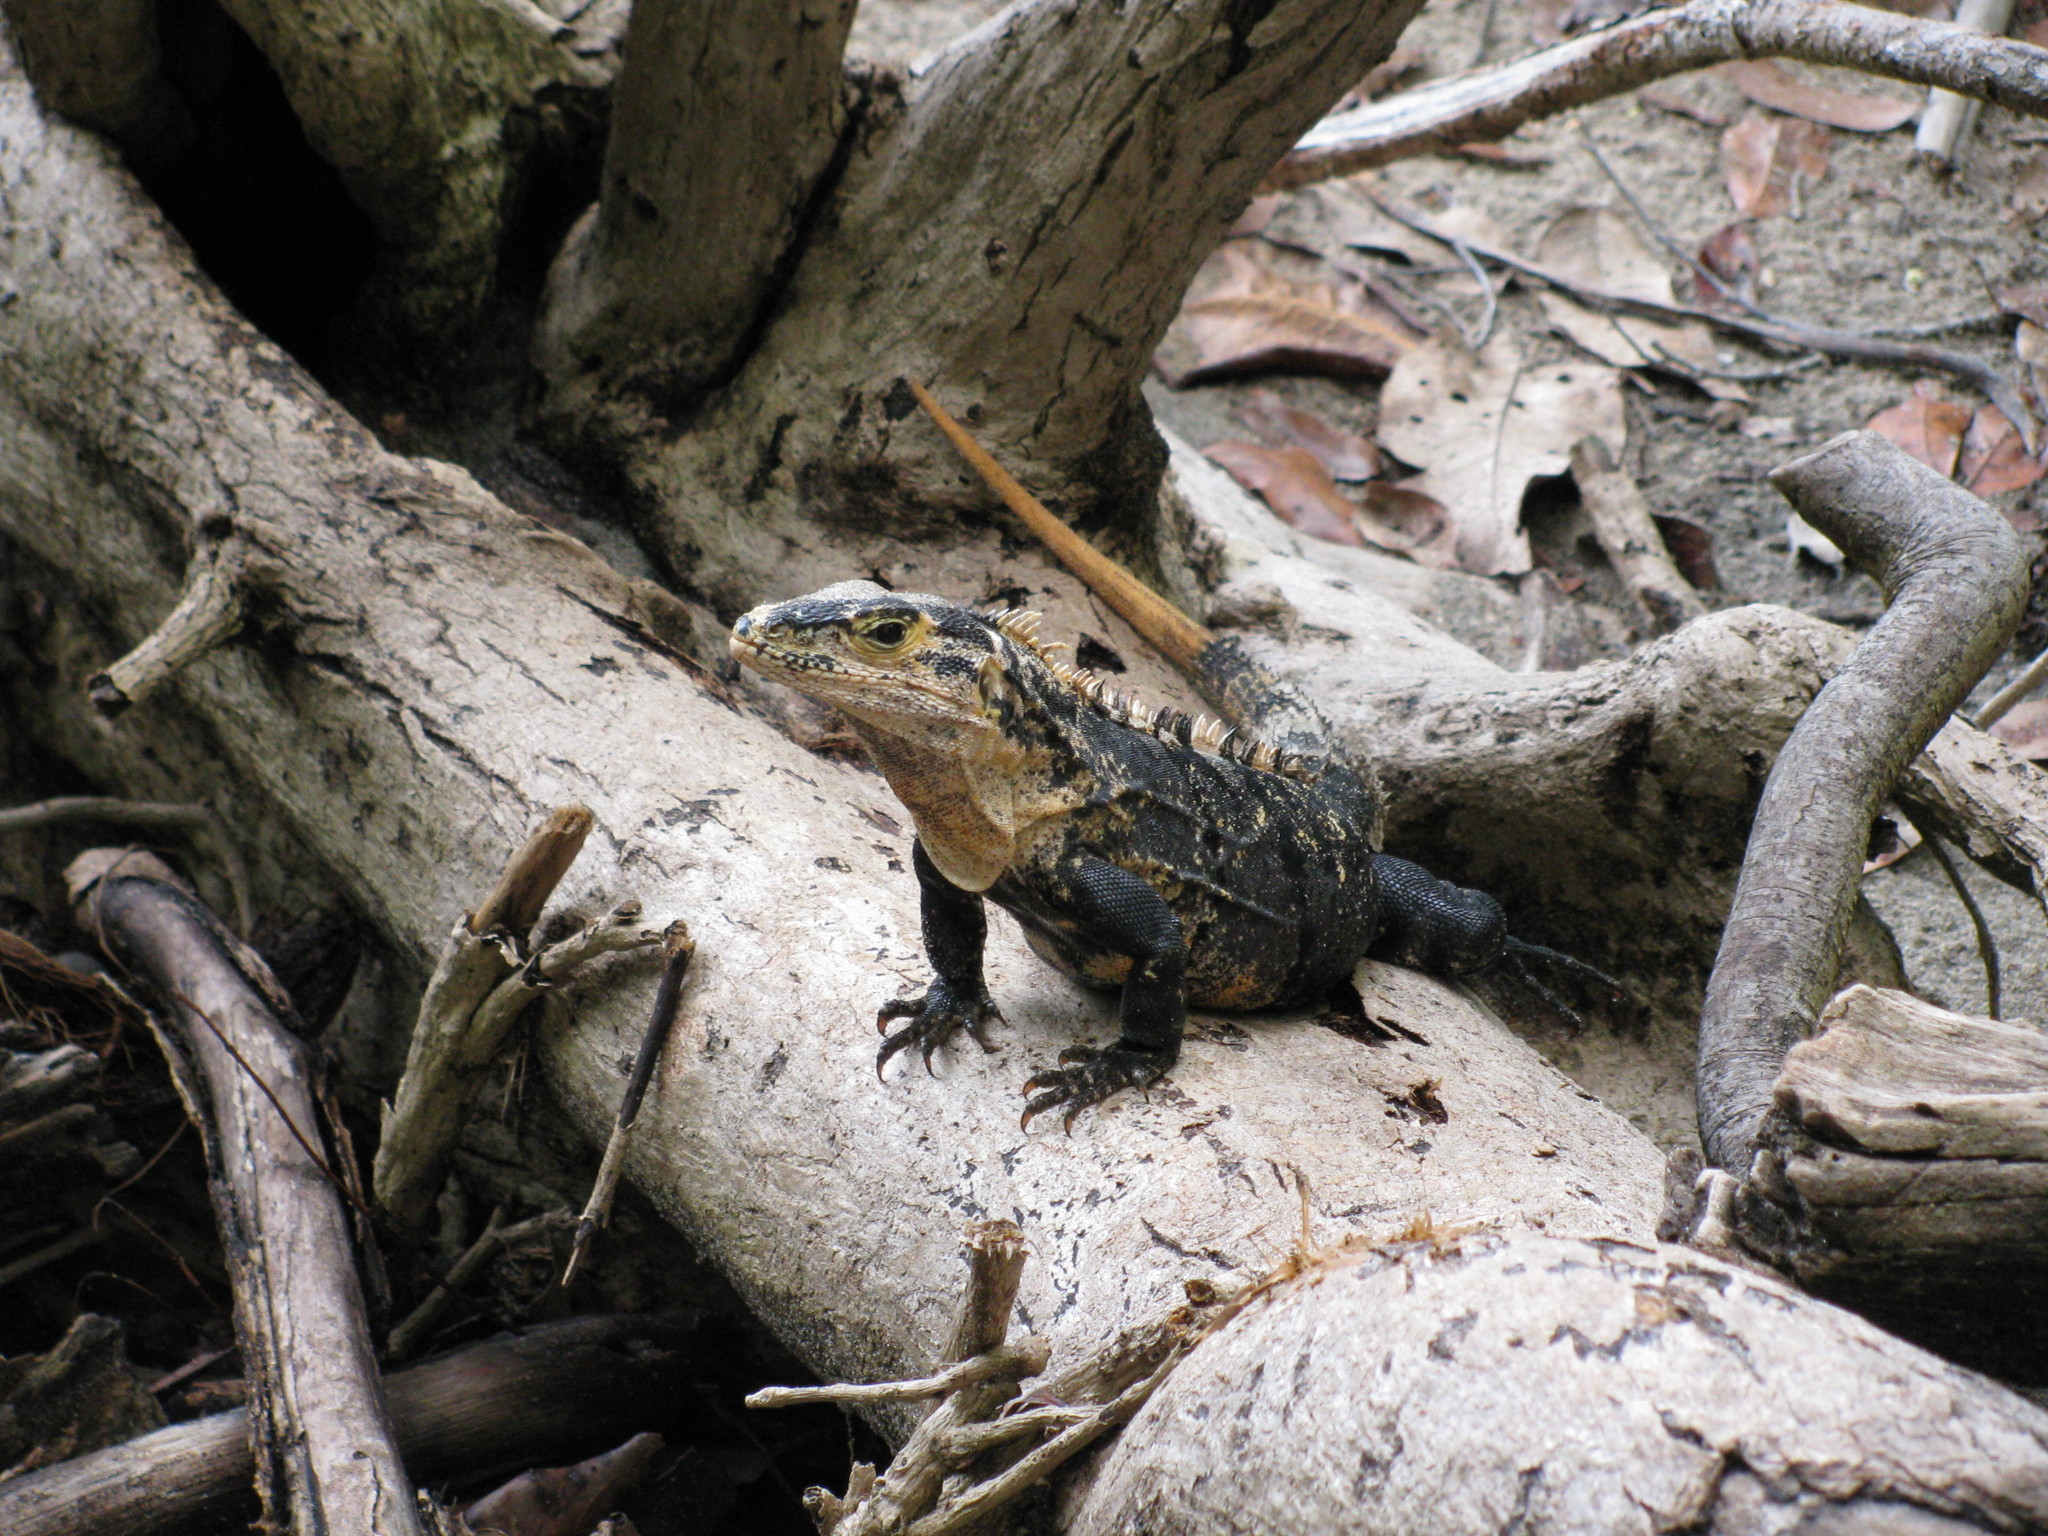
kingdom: Animalia
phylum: Chordata
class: Squamata
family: Iguanidae
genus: Ctenosaura
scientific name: Ctenosaura similis
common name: Black spiny-tailed iguana
